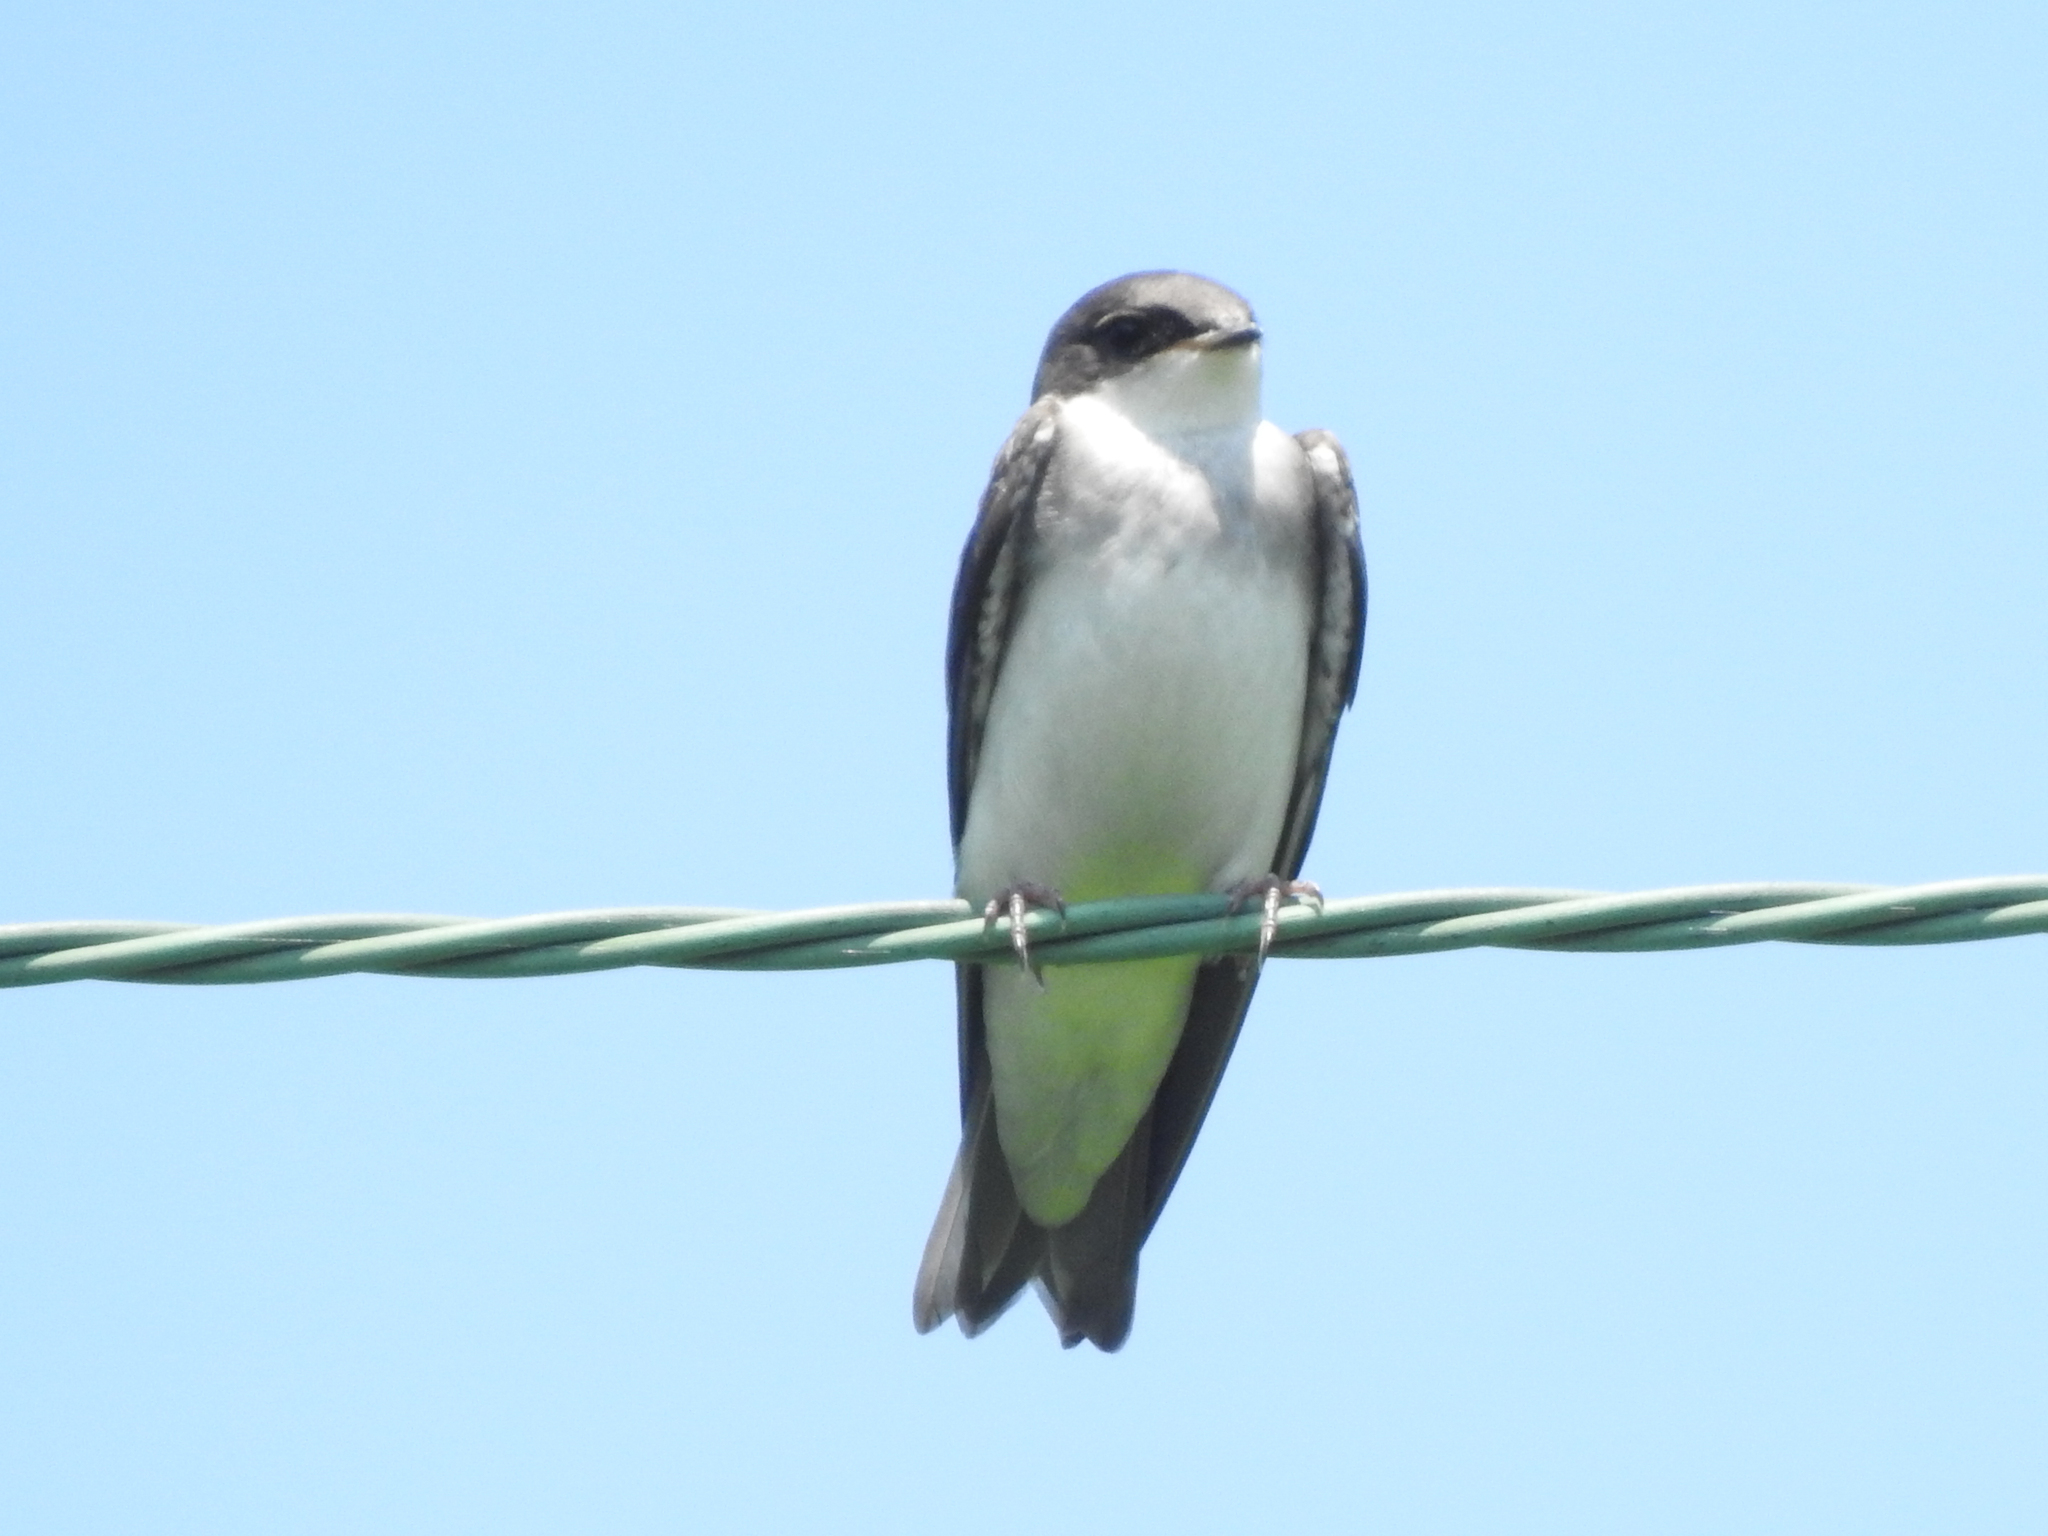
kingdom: Animalia
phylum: Chordata
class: Aves
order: Passeriformes
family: Hirundinidae
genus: Tachycineta
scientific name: Tachycineta bicolor
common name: Tree swallow
